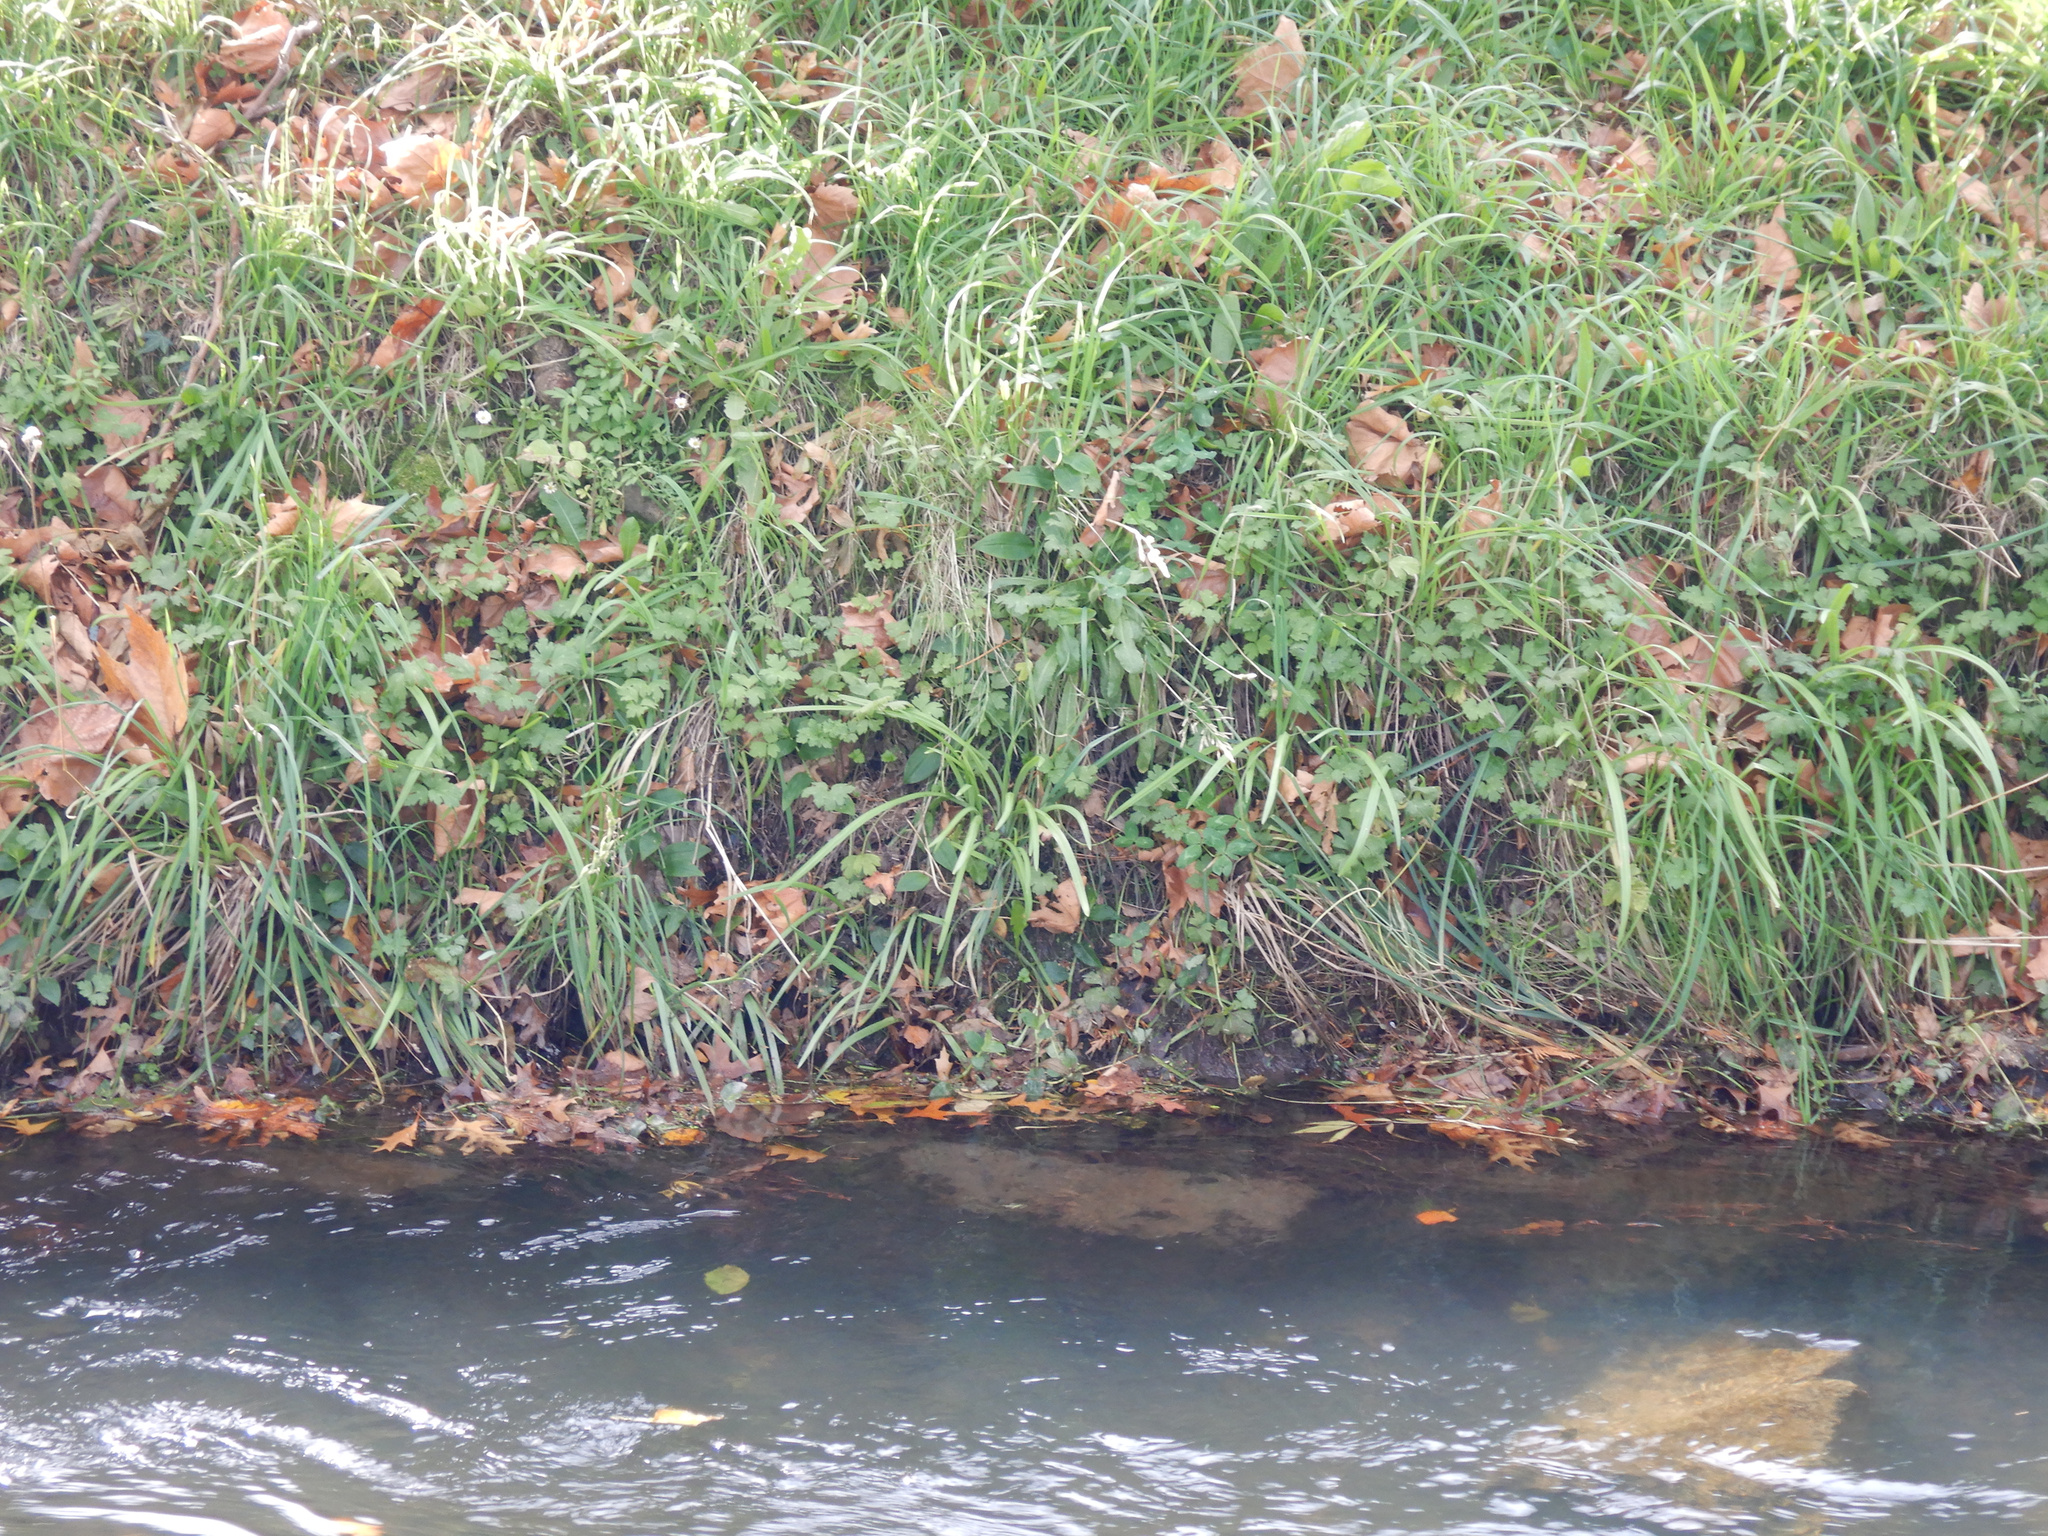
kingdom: Plantae
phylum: Tracheophyta
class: Liliopsida
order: Asparagales
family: Iridaceae
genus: Hesperantha
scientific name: Hesperantha coccinea
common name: River-lily
